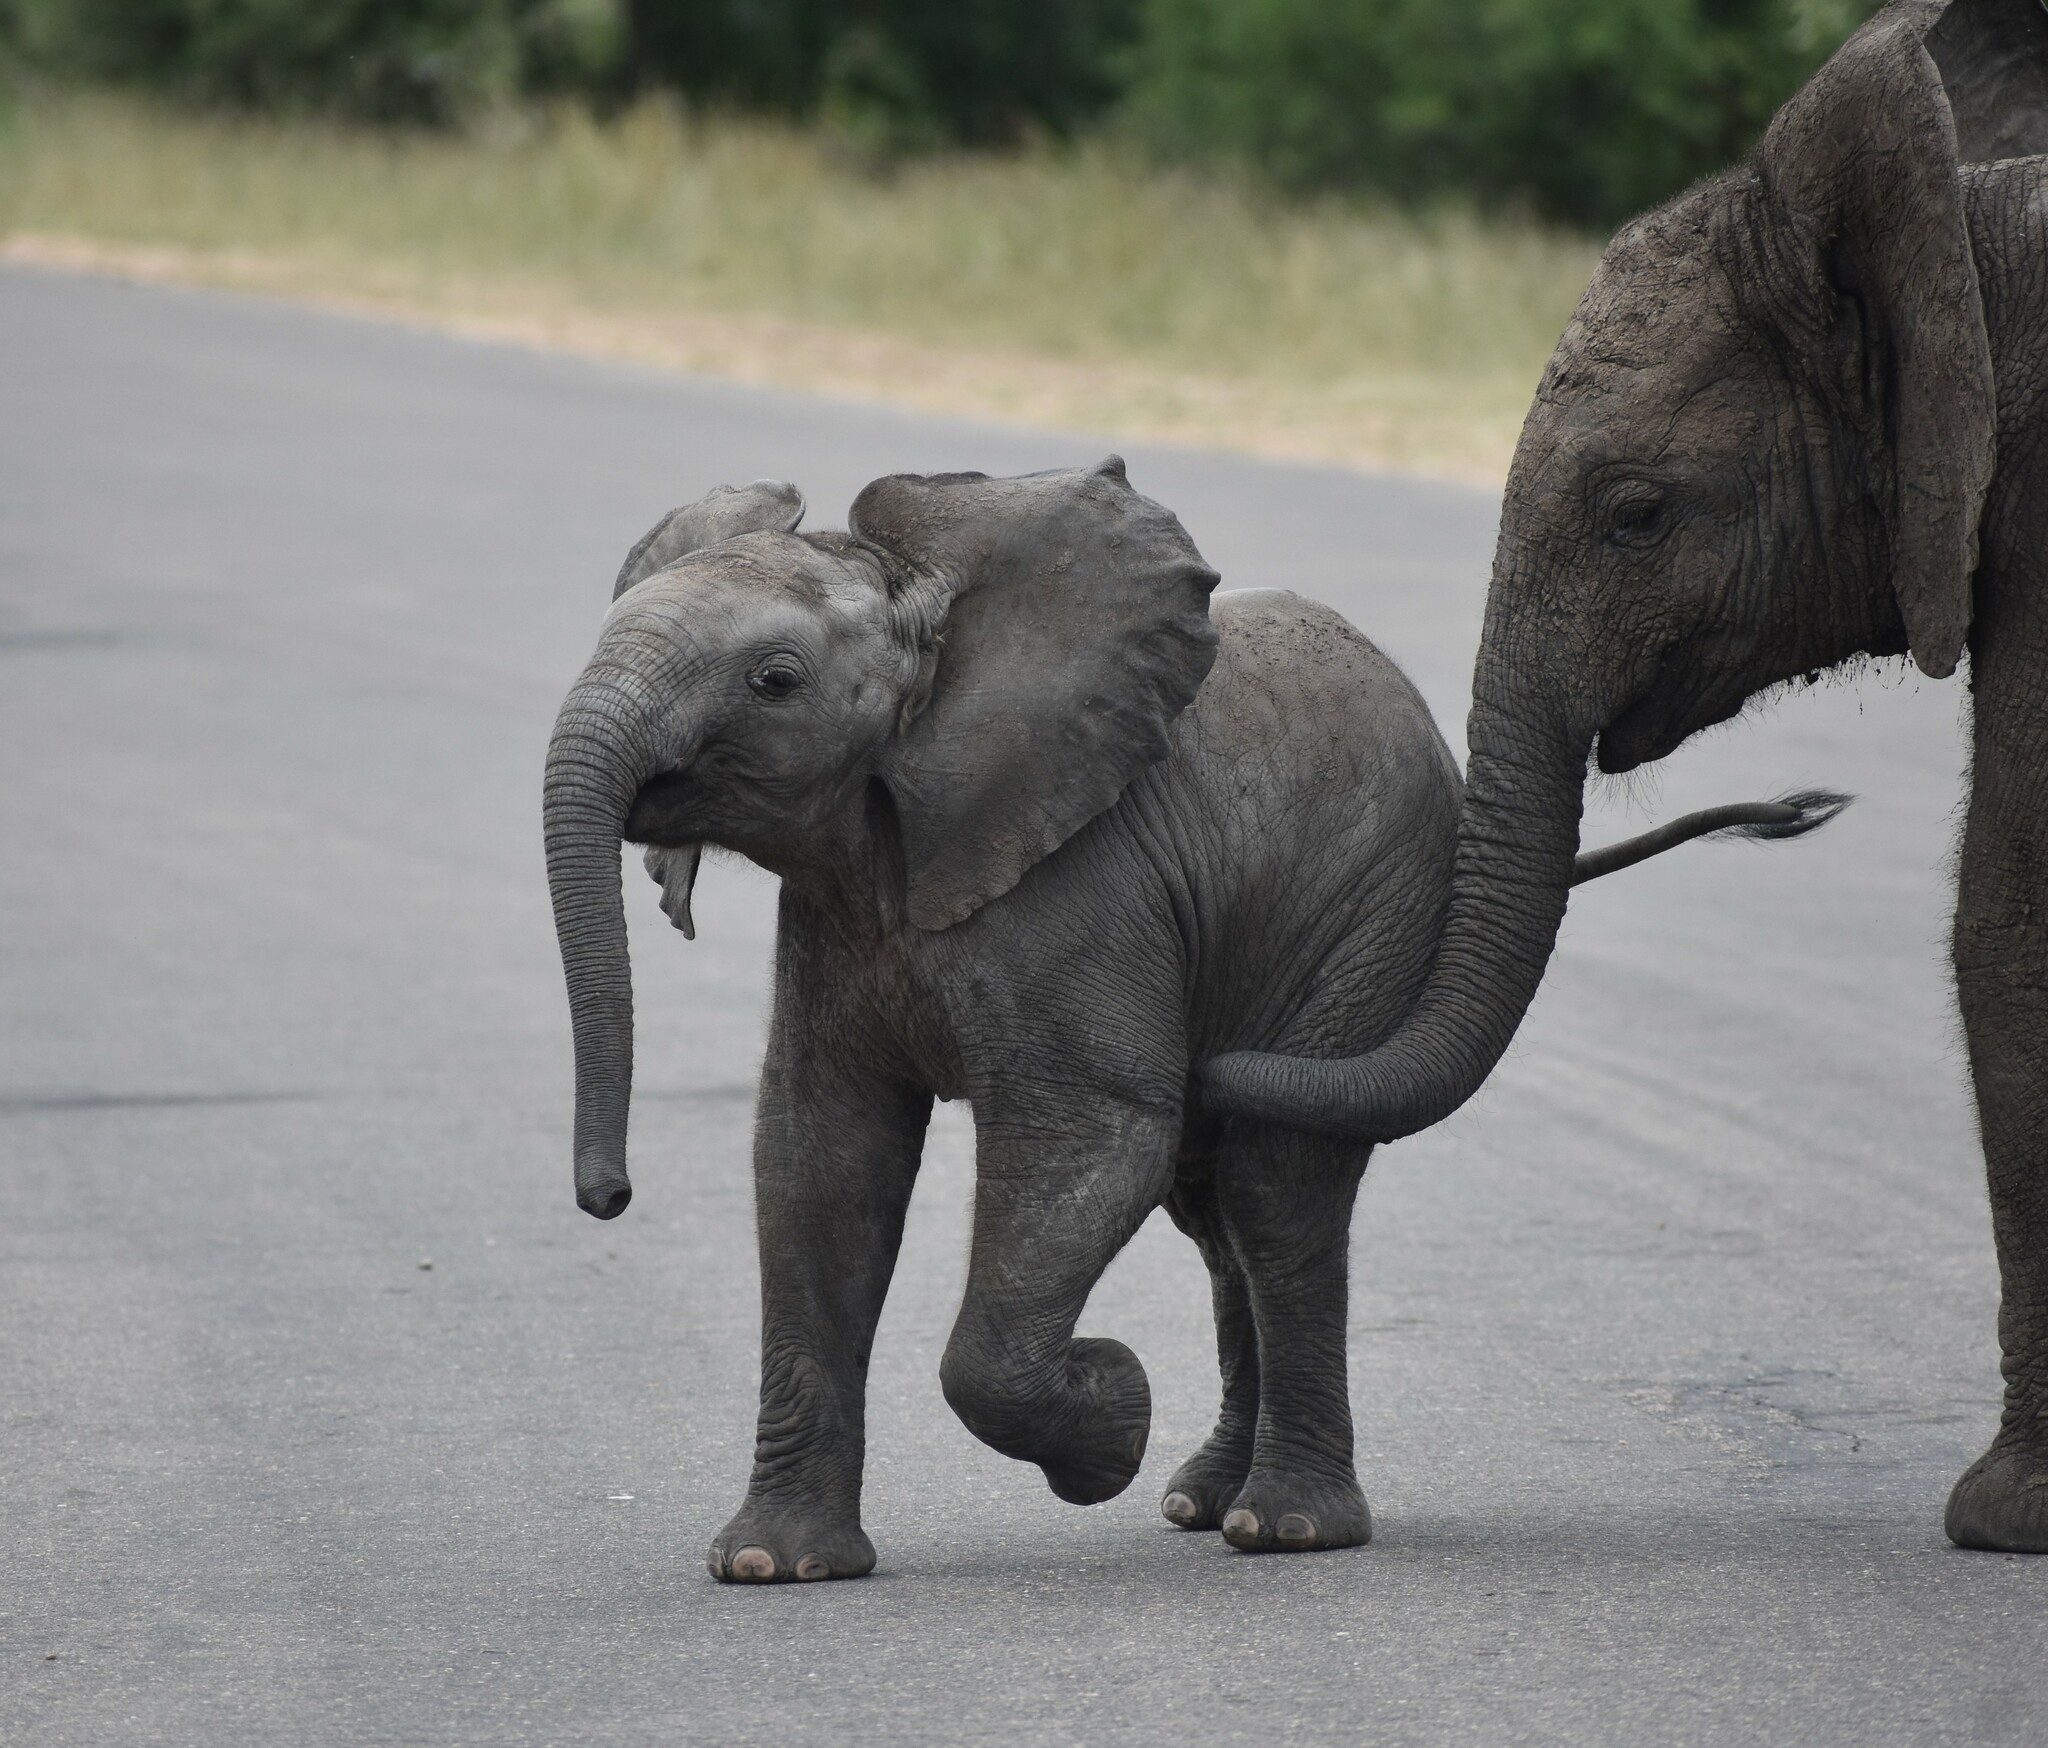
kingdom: Animalia
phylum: Chordata
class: Mammalia
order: Proboscidea
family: Elephantidae
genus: Loxodonta
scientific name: Loxodonta africana
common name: African elephant
